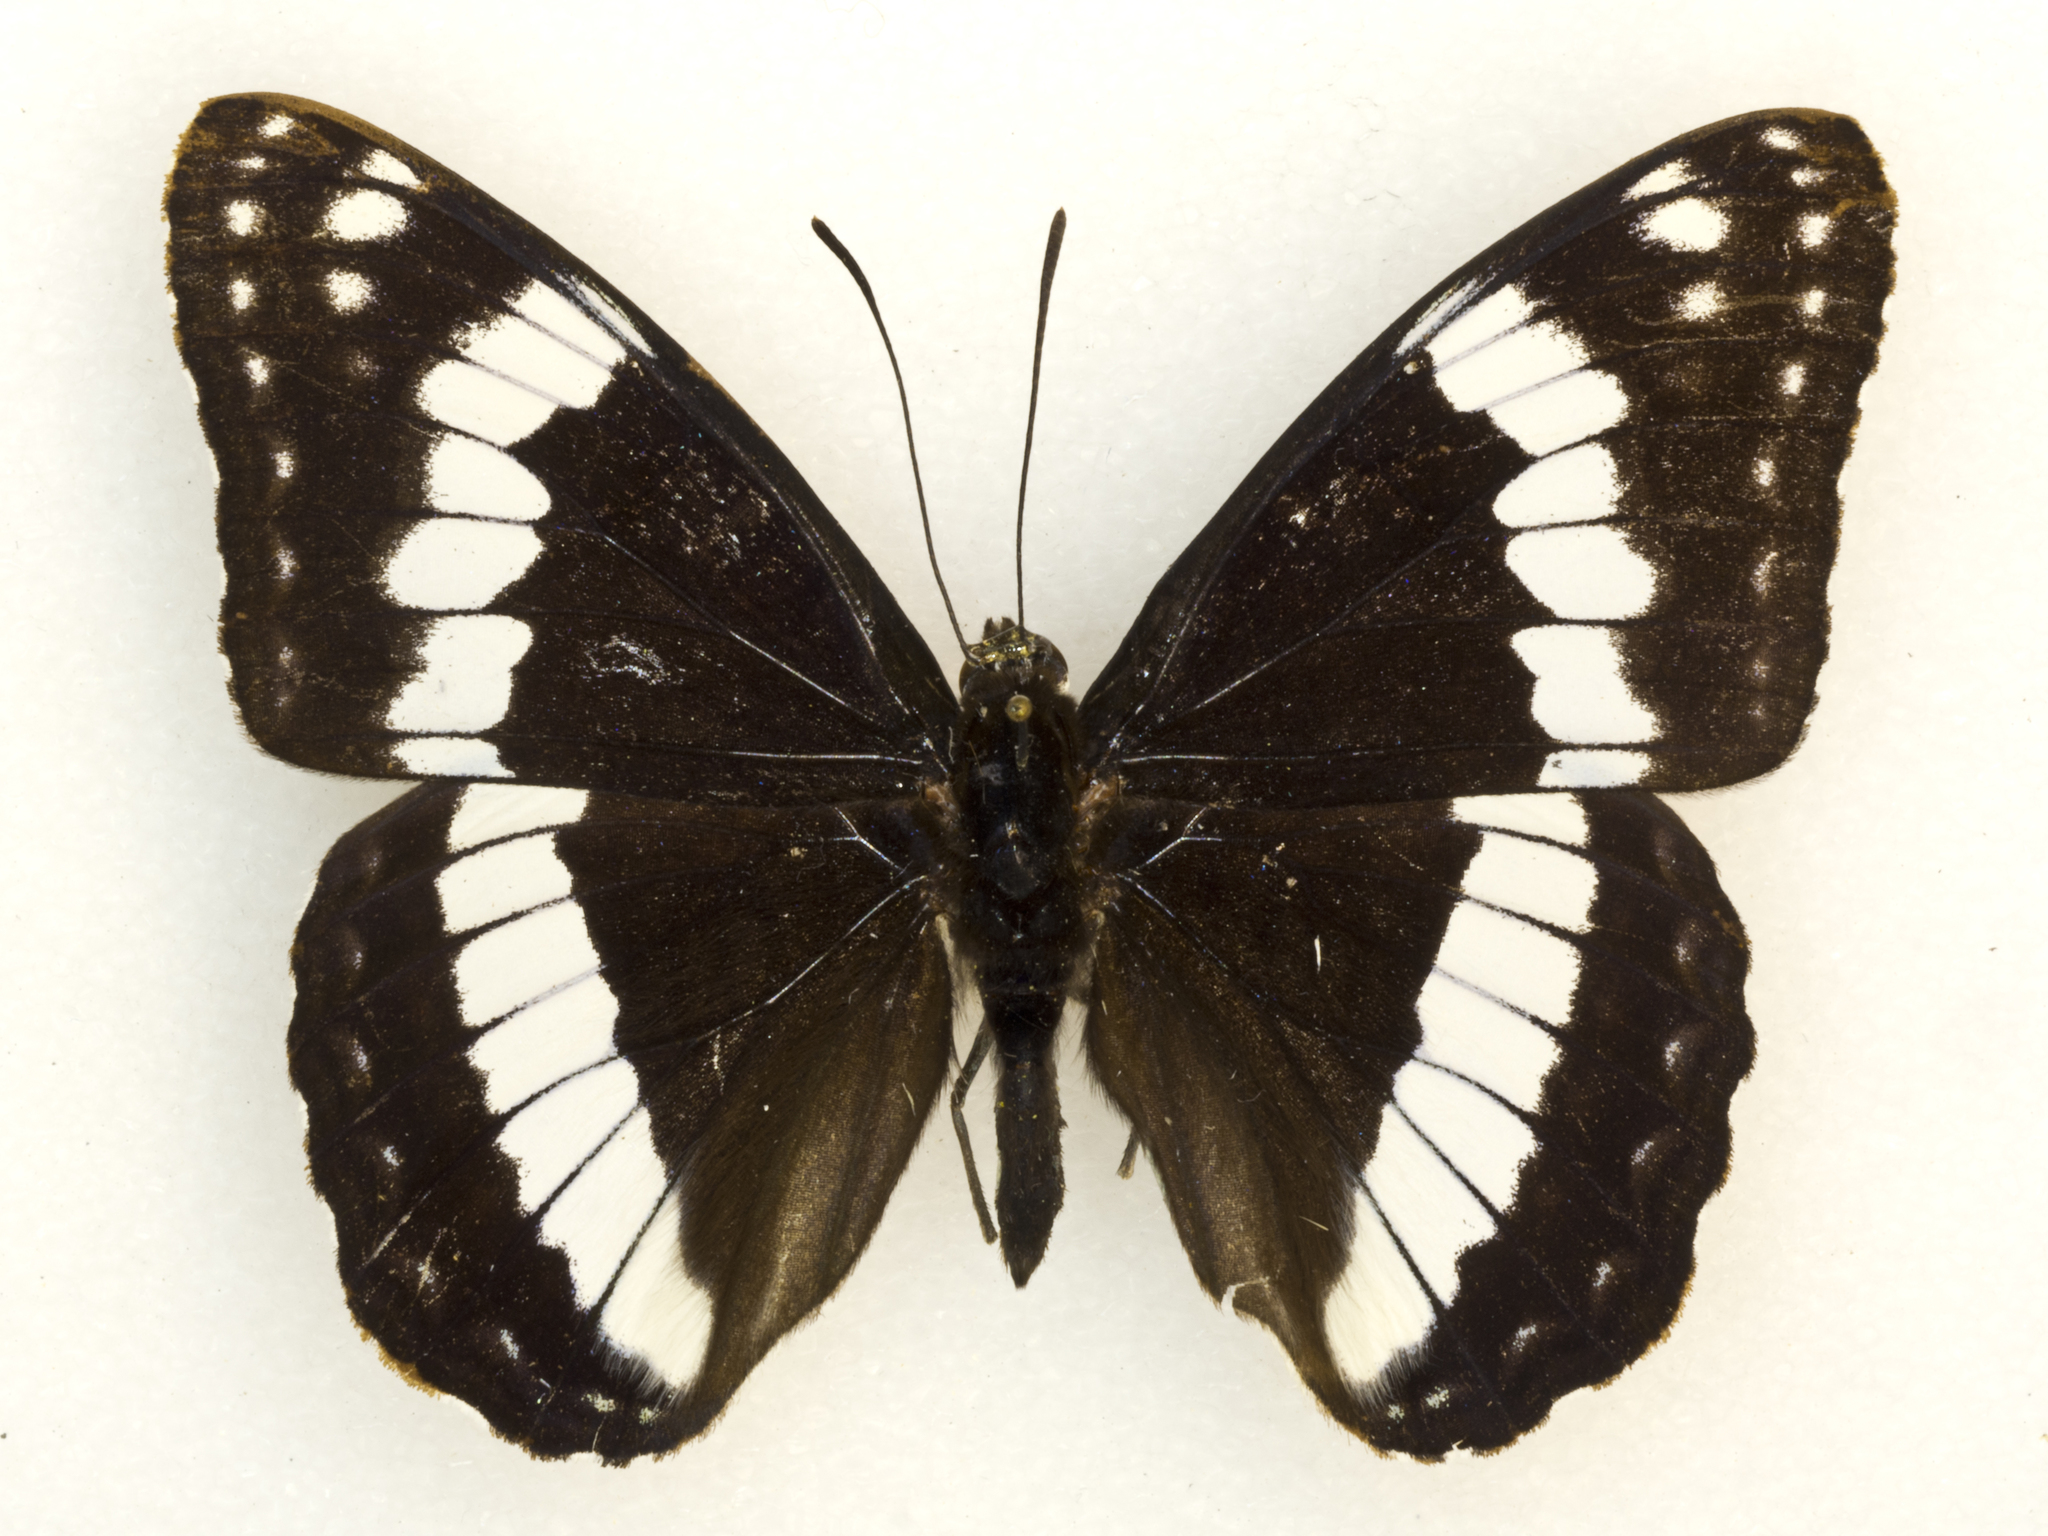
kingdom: Animalia
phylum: Arthropoda
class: Insecta
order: Lepidoptera
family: Nymphalidae
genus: Limenitis
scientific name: Limenitis weidemeyerii
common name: Weidemeyer's admiral
